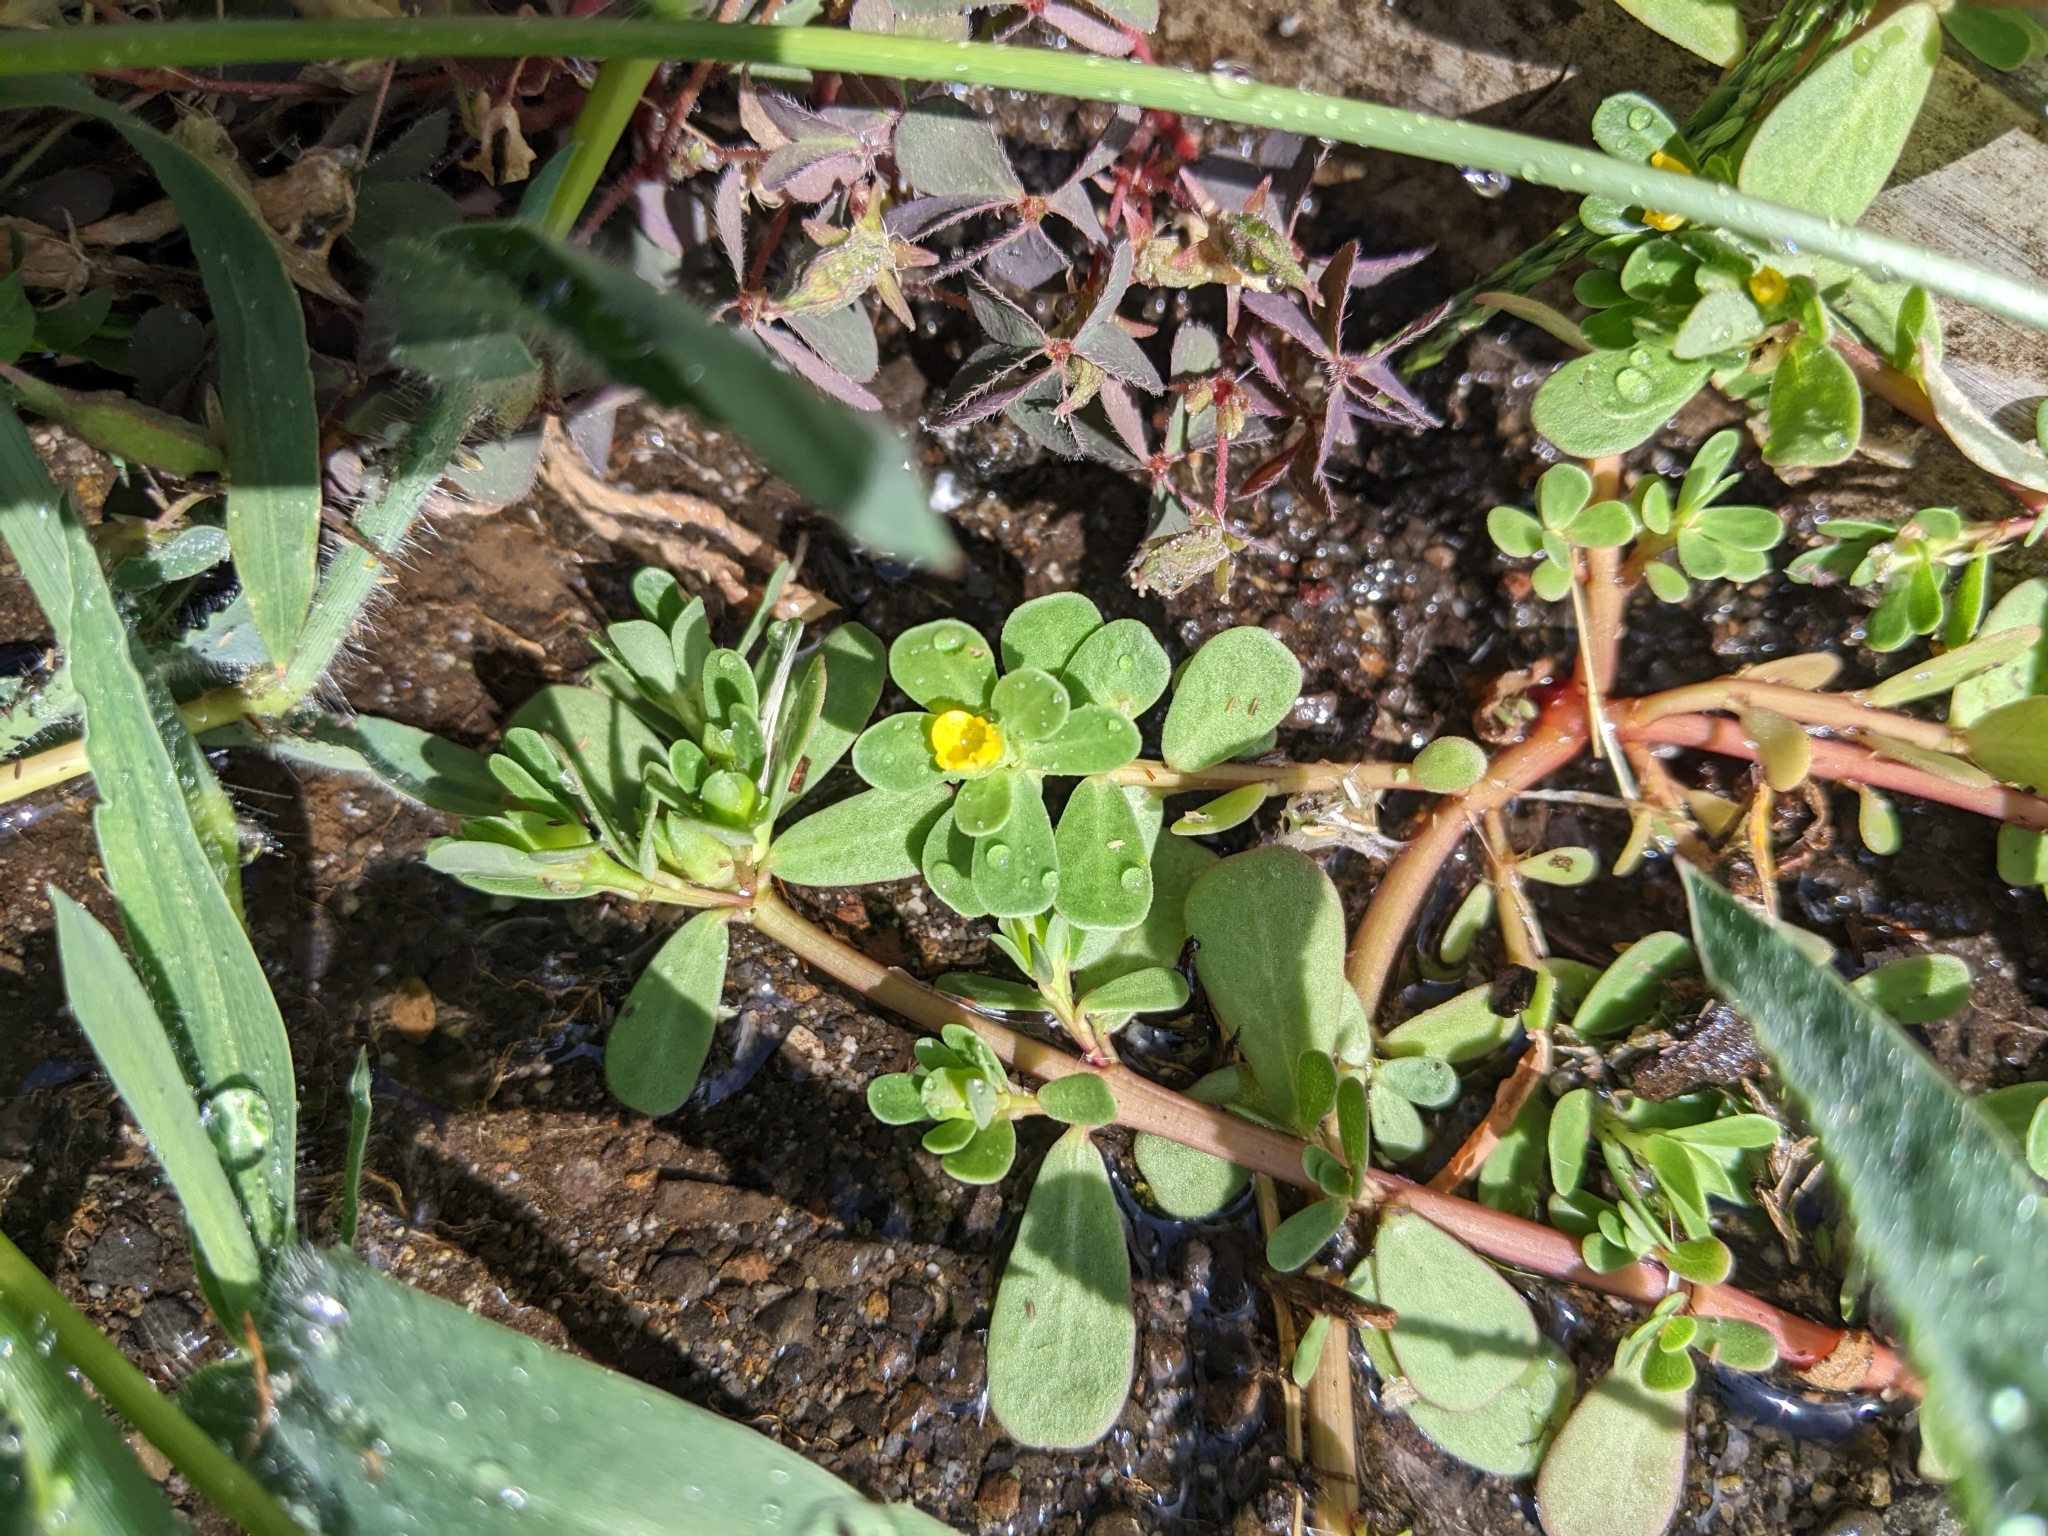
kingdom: Plantae
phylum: Tracheophyta
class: Magnoliopsida
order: Caryophyllales
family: Portulacaceae
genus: Portulaca
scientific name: Portulaca oleracea
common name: Common purslane
